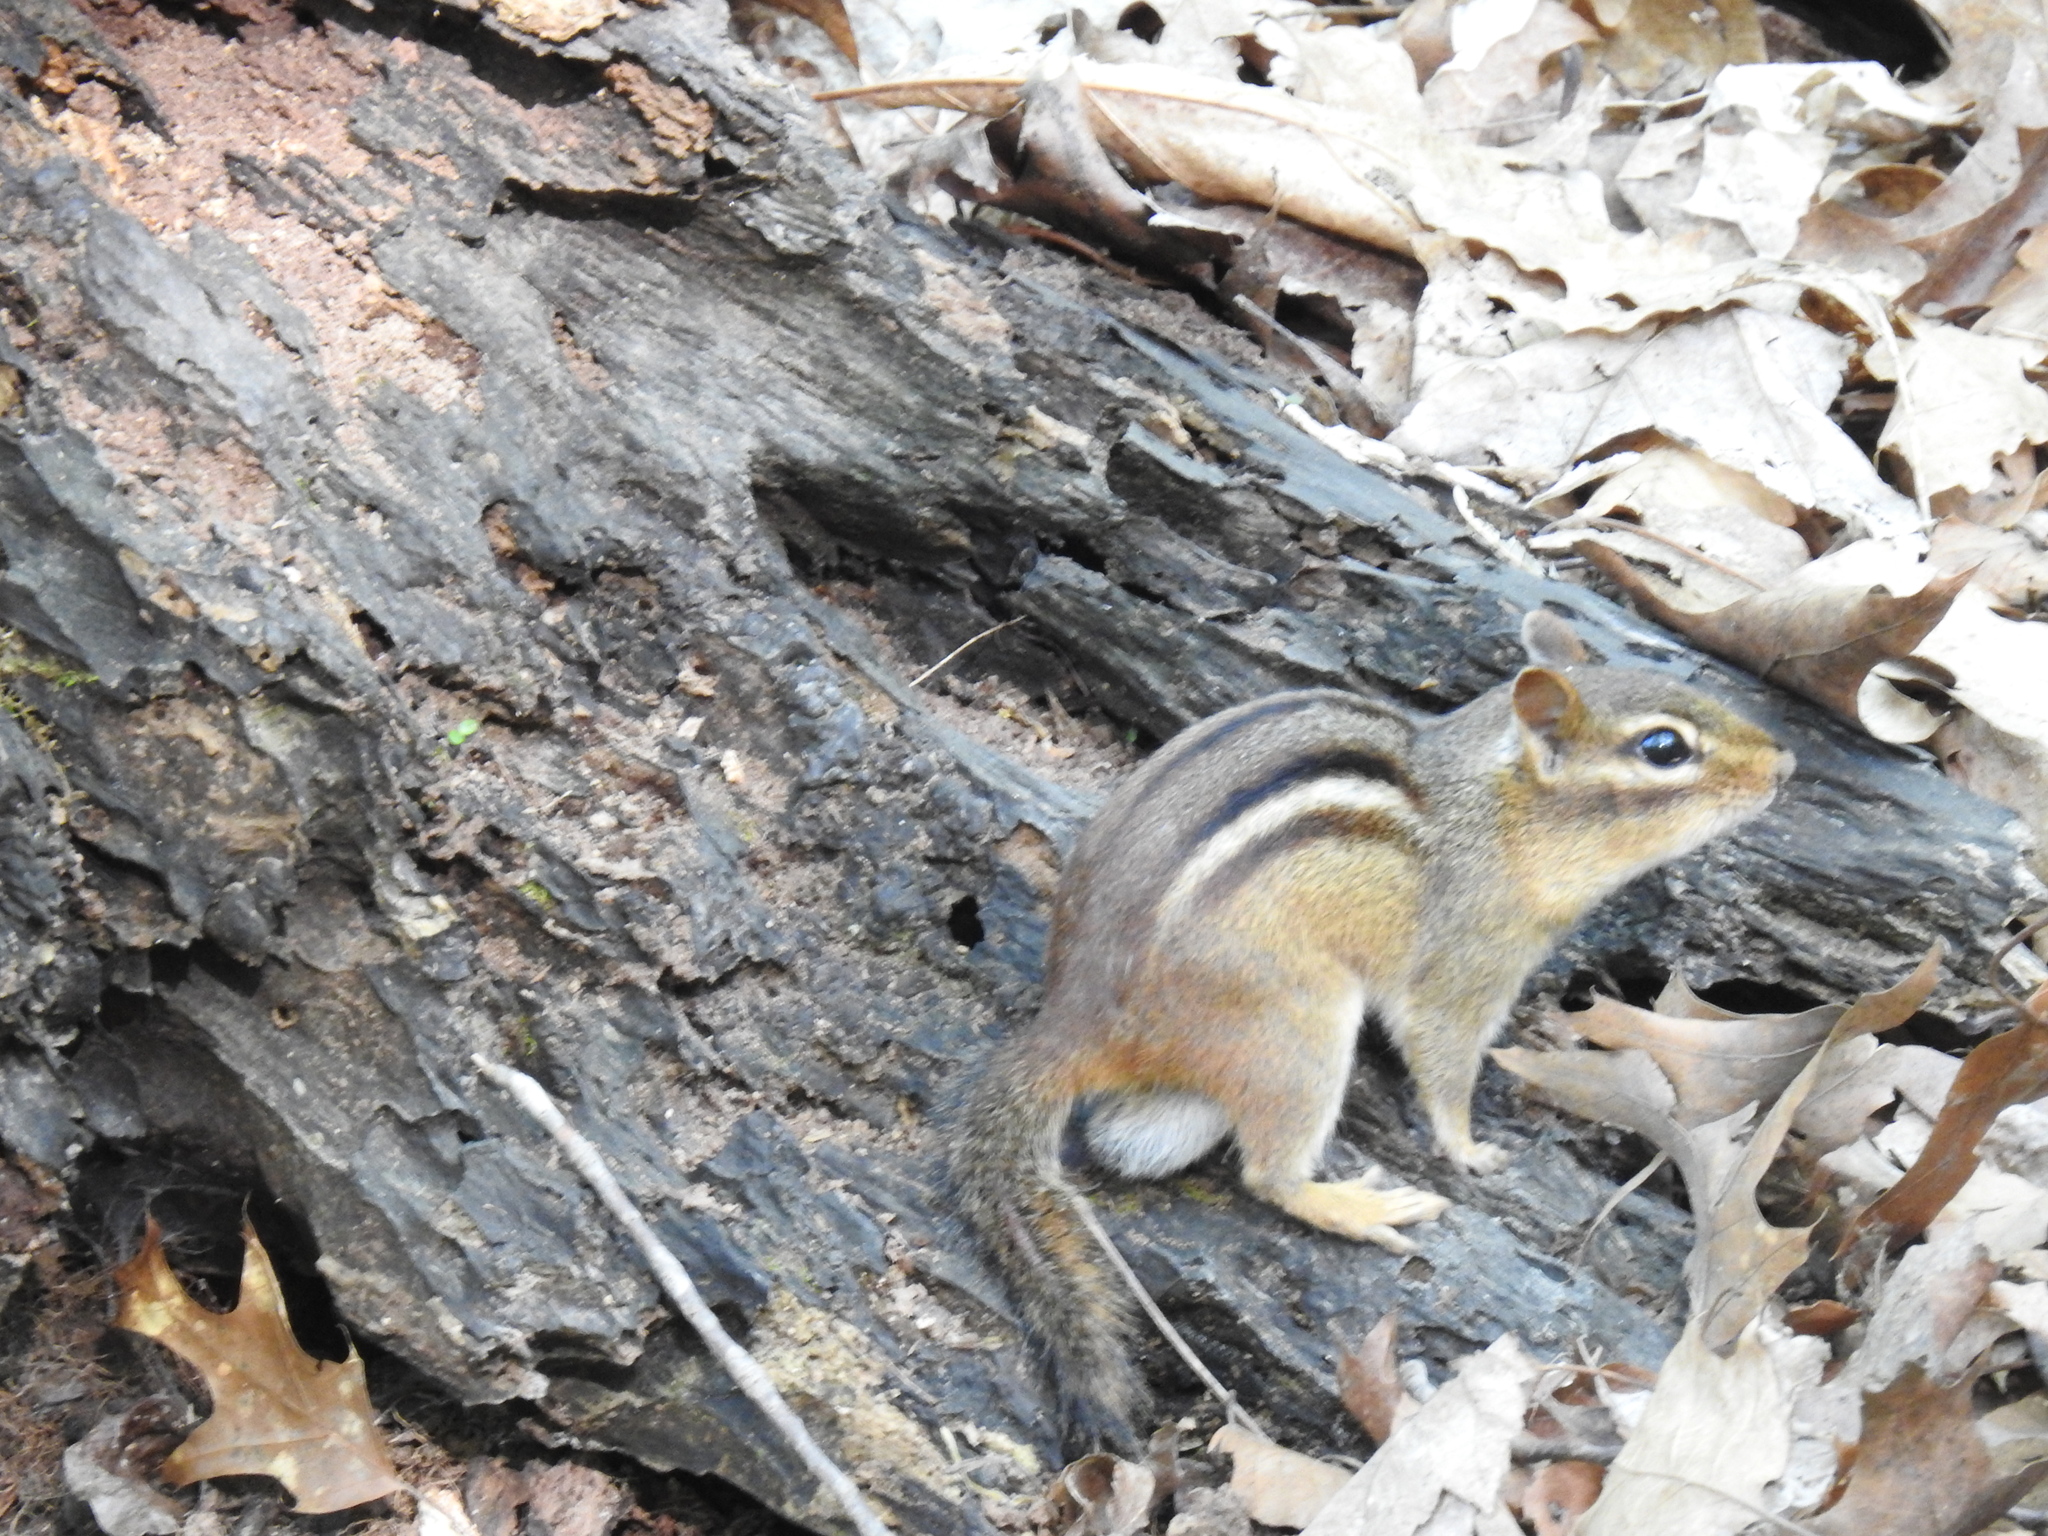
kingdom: Animalia
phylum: Chordata
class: Mammalia
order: Rodentia
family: Sciuridae
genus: Tamias
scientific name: Tamias striatus
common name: Eastern chipmunk
